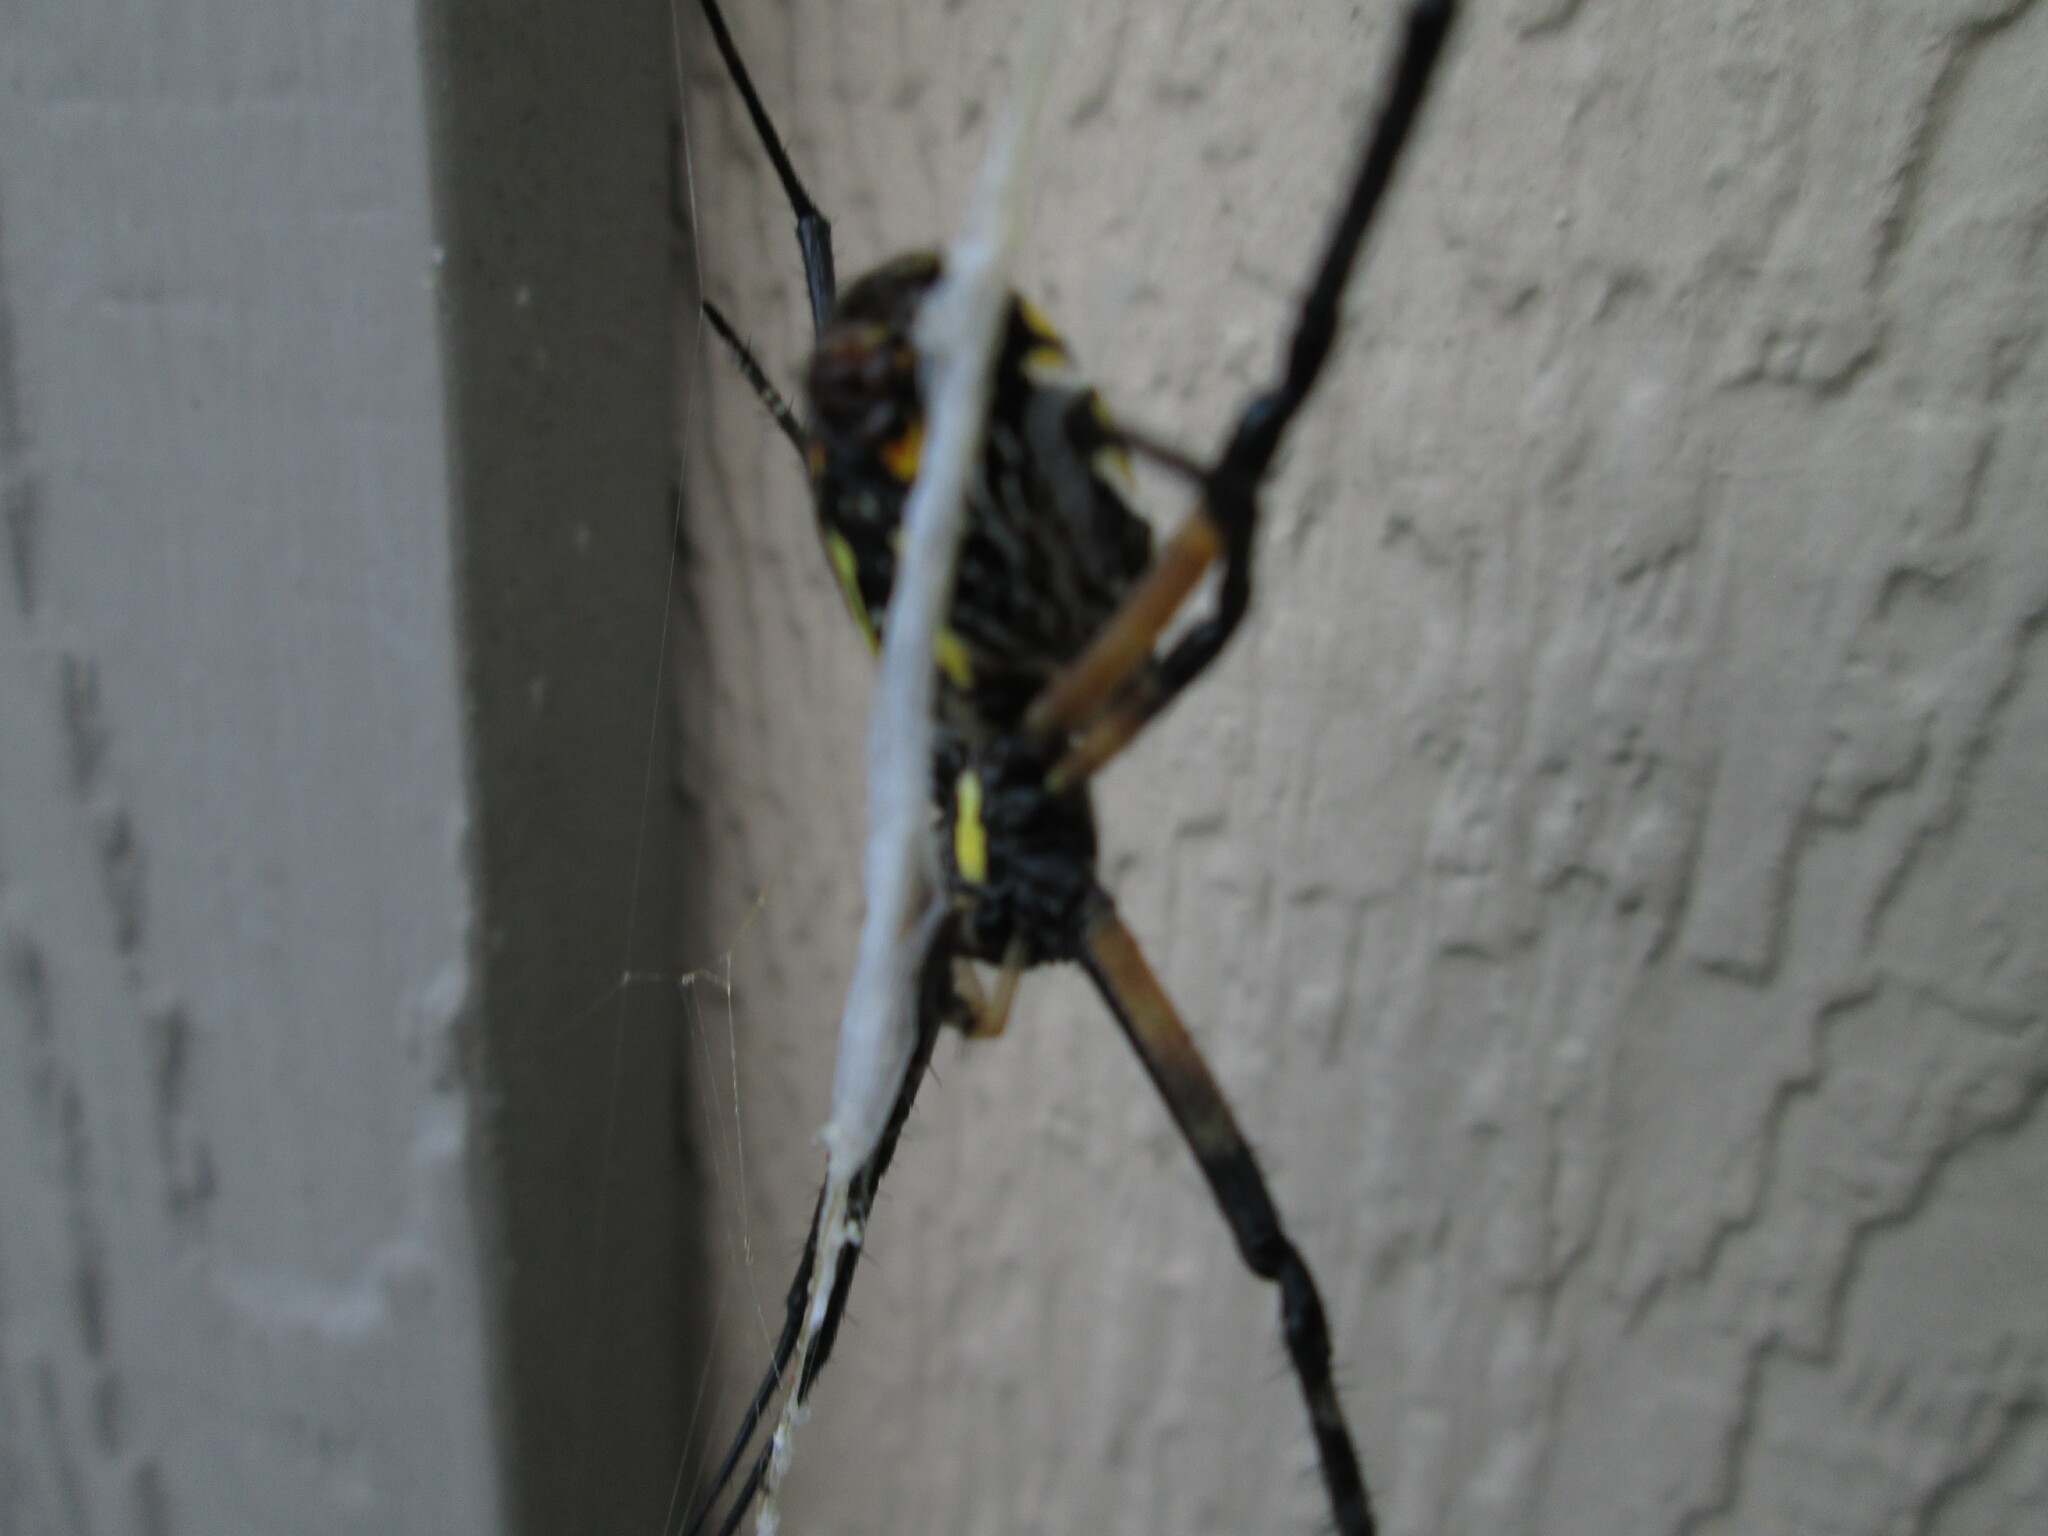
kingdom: Animalia
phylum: Arthropoda
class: Arachnida
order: Araneae
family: Araneidae
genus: Argiope
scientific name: Argiope aurantia
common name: Orb weavers
